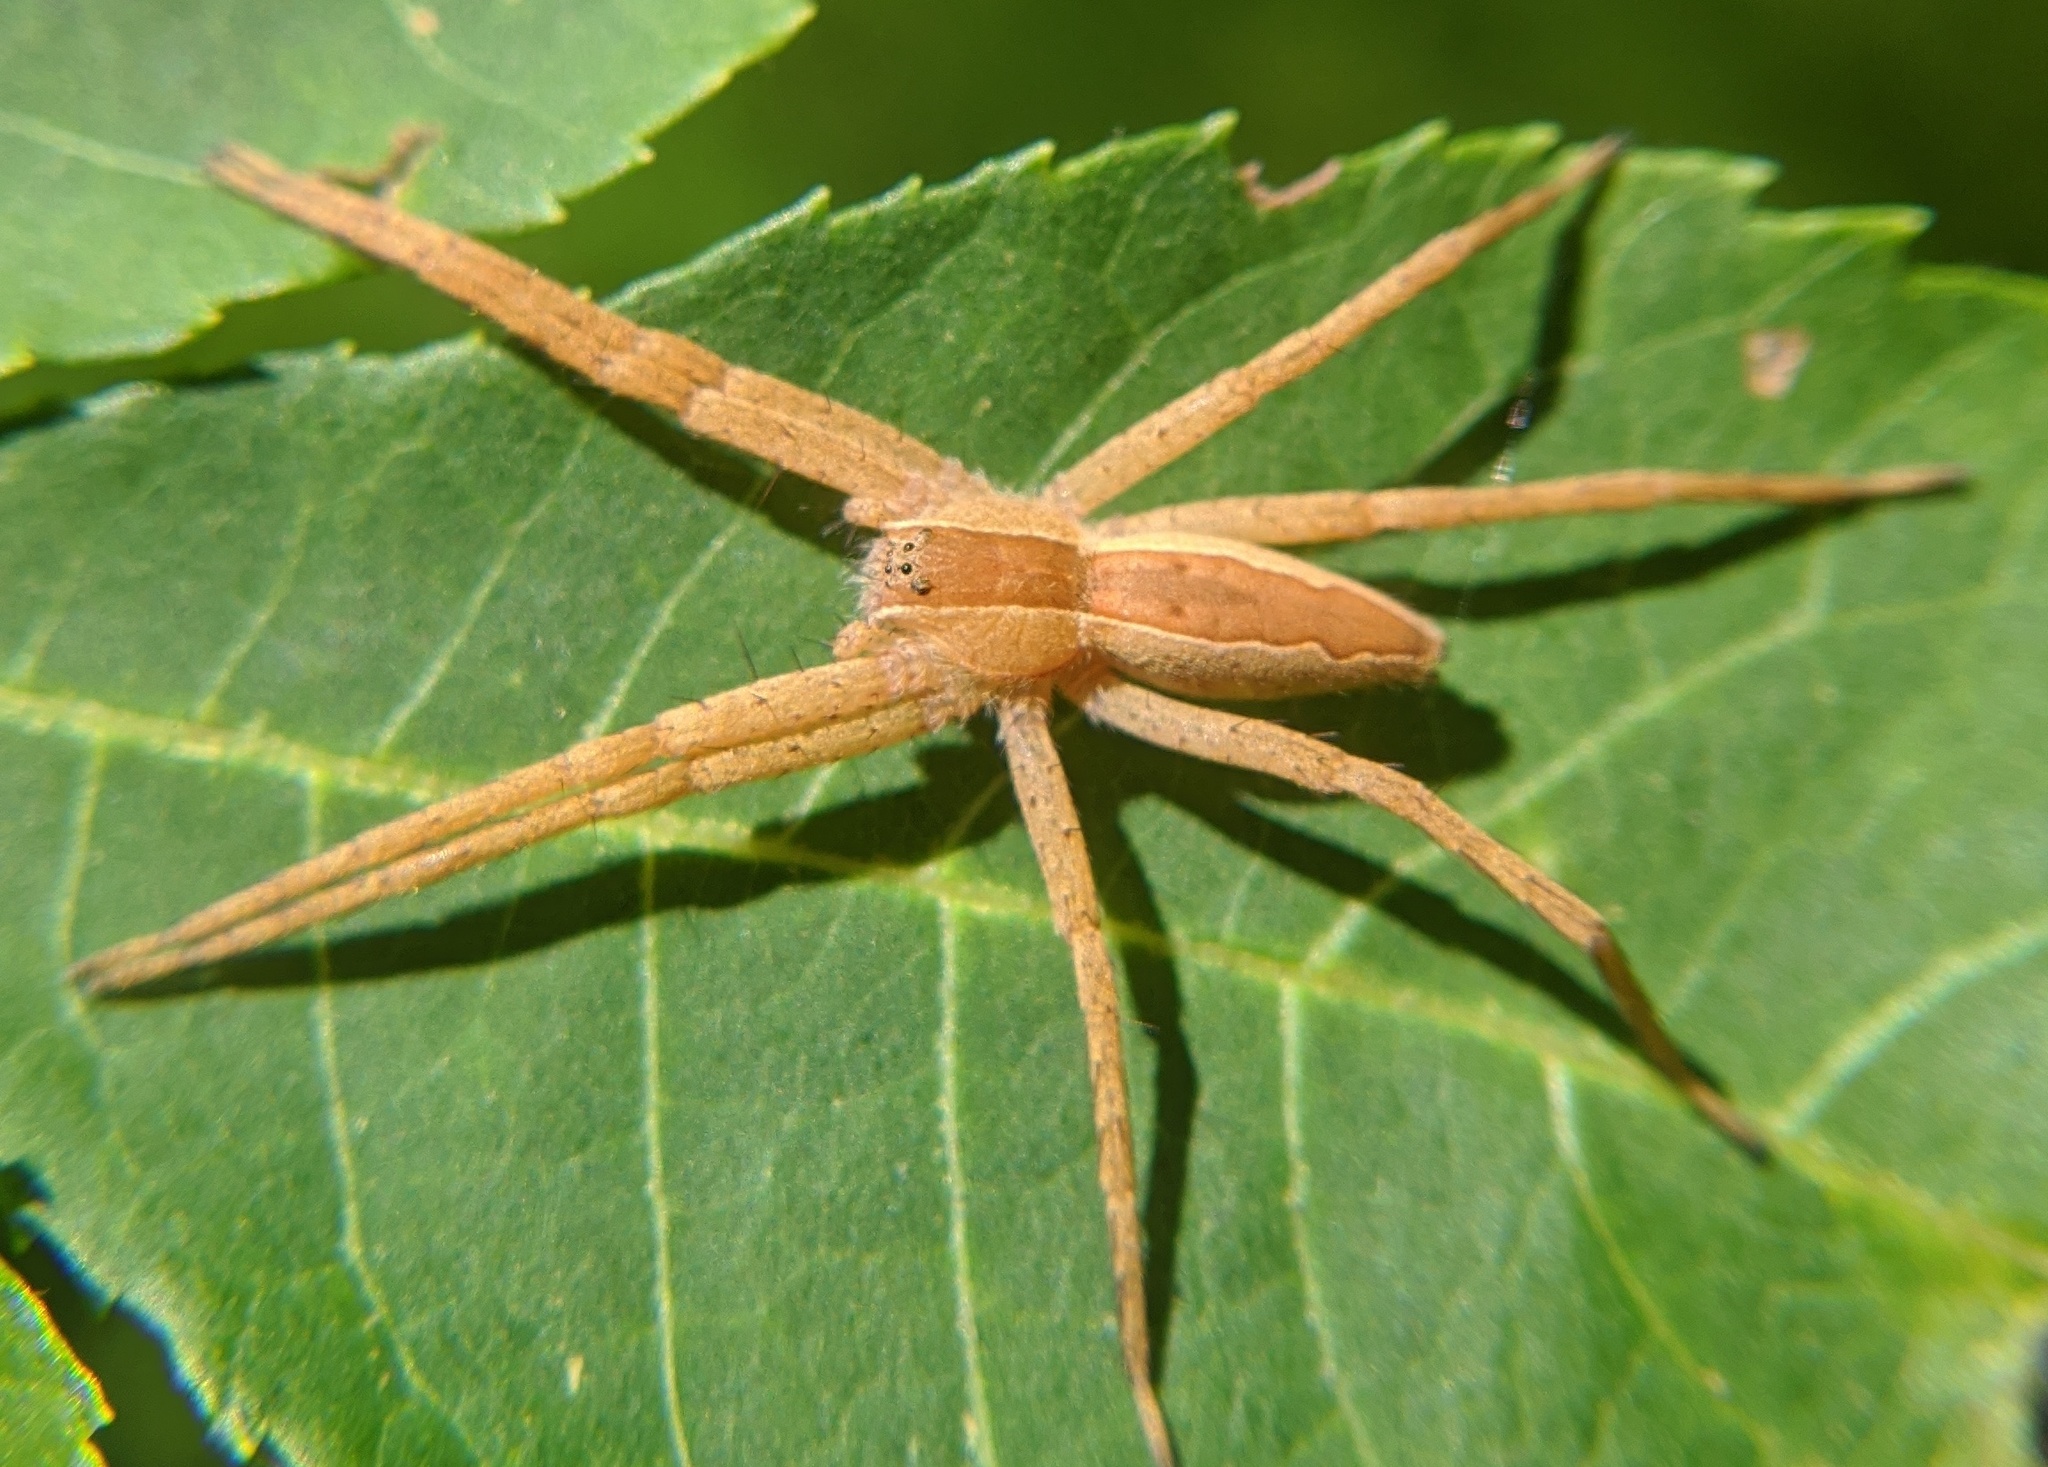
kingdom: Animalia
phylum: Arthropoda
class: Arachnida
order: Araneae
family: Pisauridae
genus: Pisaurina
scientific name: Pisaurina mira
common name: American nursery web spider
